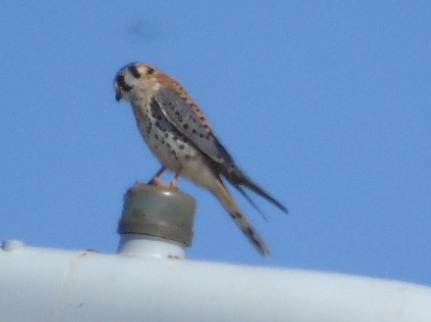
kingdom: Animalia
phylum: Chordata
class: Aves
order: Falconiformes
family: Falconidae
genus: Falco
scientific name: Falco sparverius
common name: American kestrel
